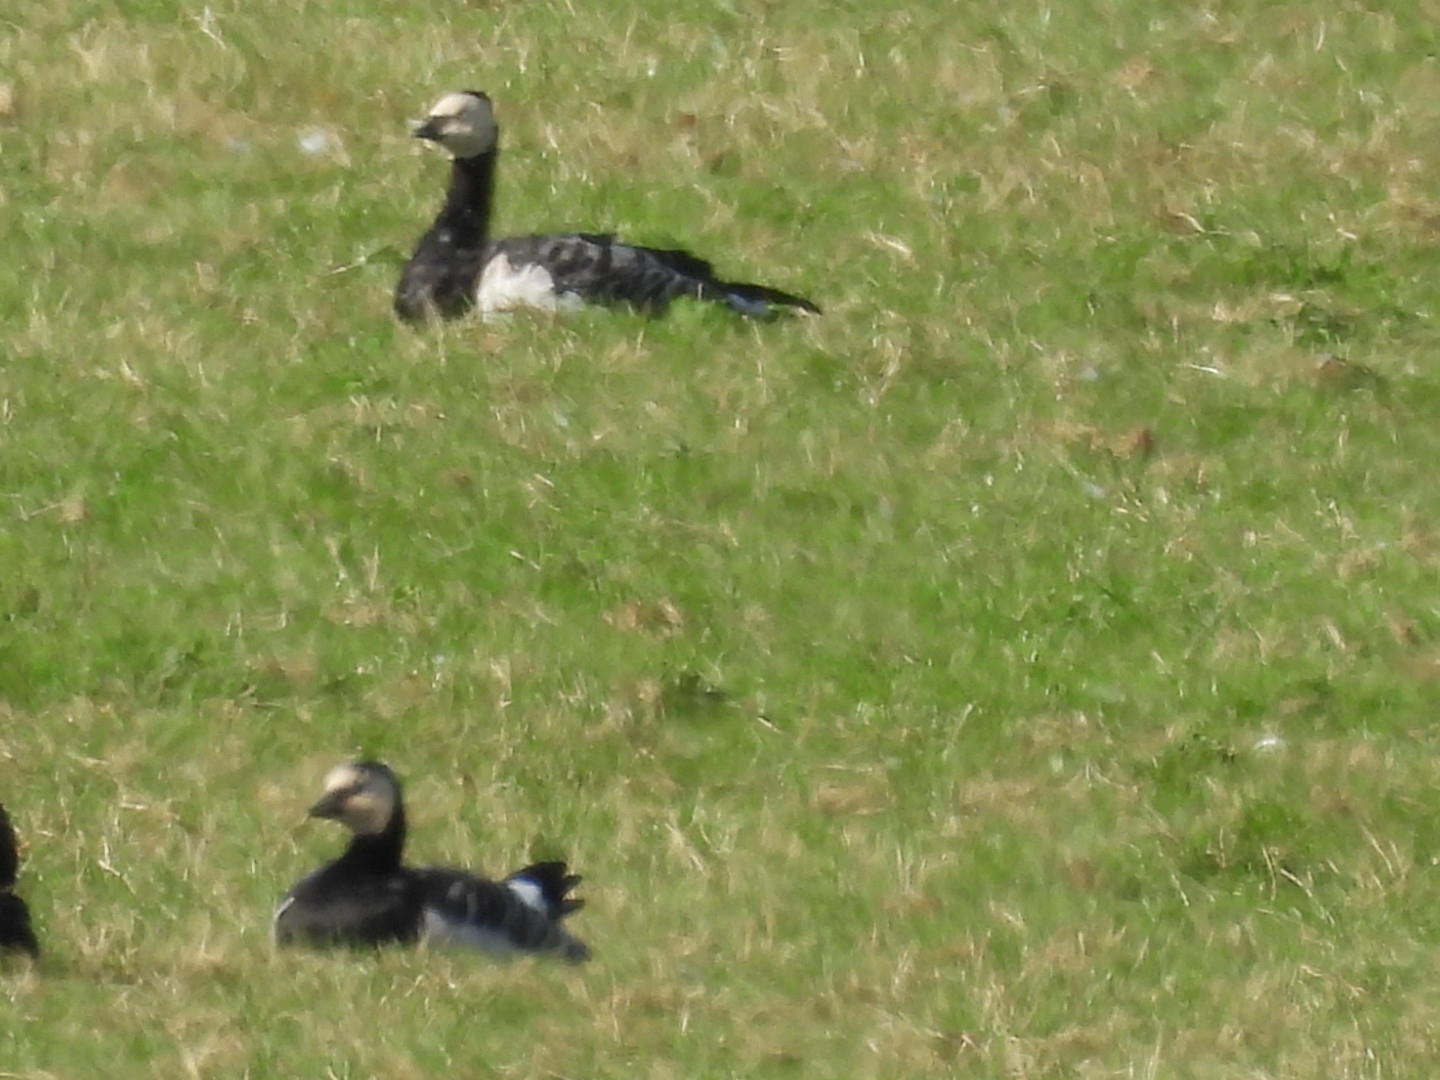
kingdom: Animalia
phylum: Chordata
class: Aves
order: Anseriformes
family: Anatidae
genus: Branta
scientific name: Branta leucopsis
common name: Barnacle goose
